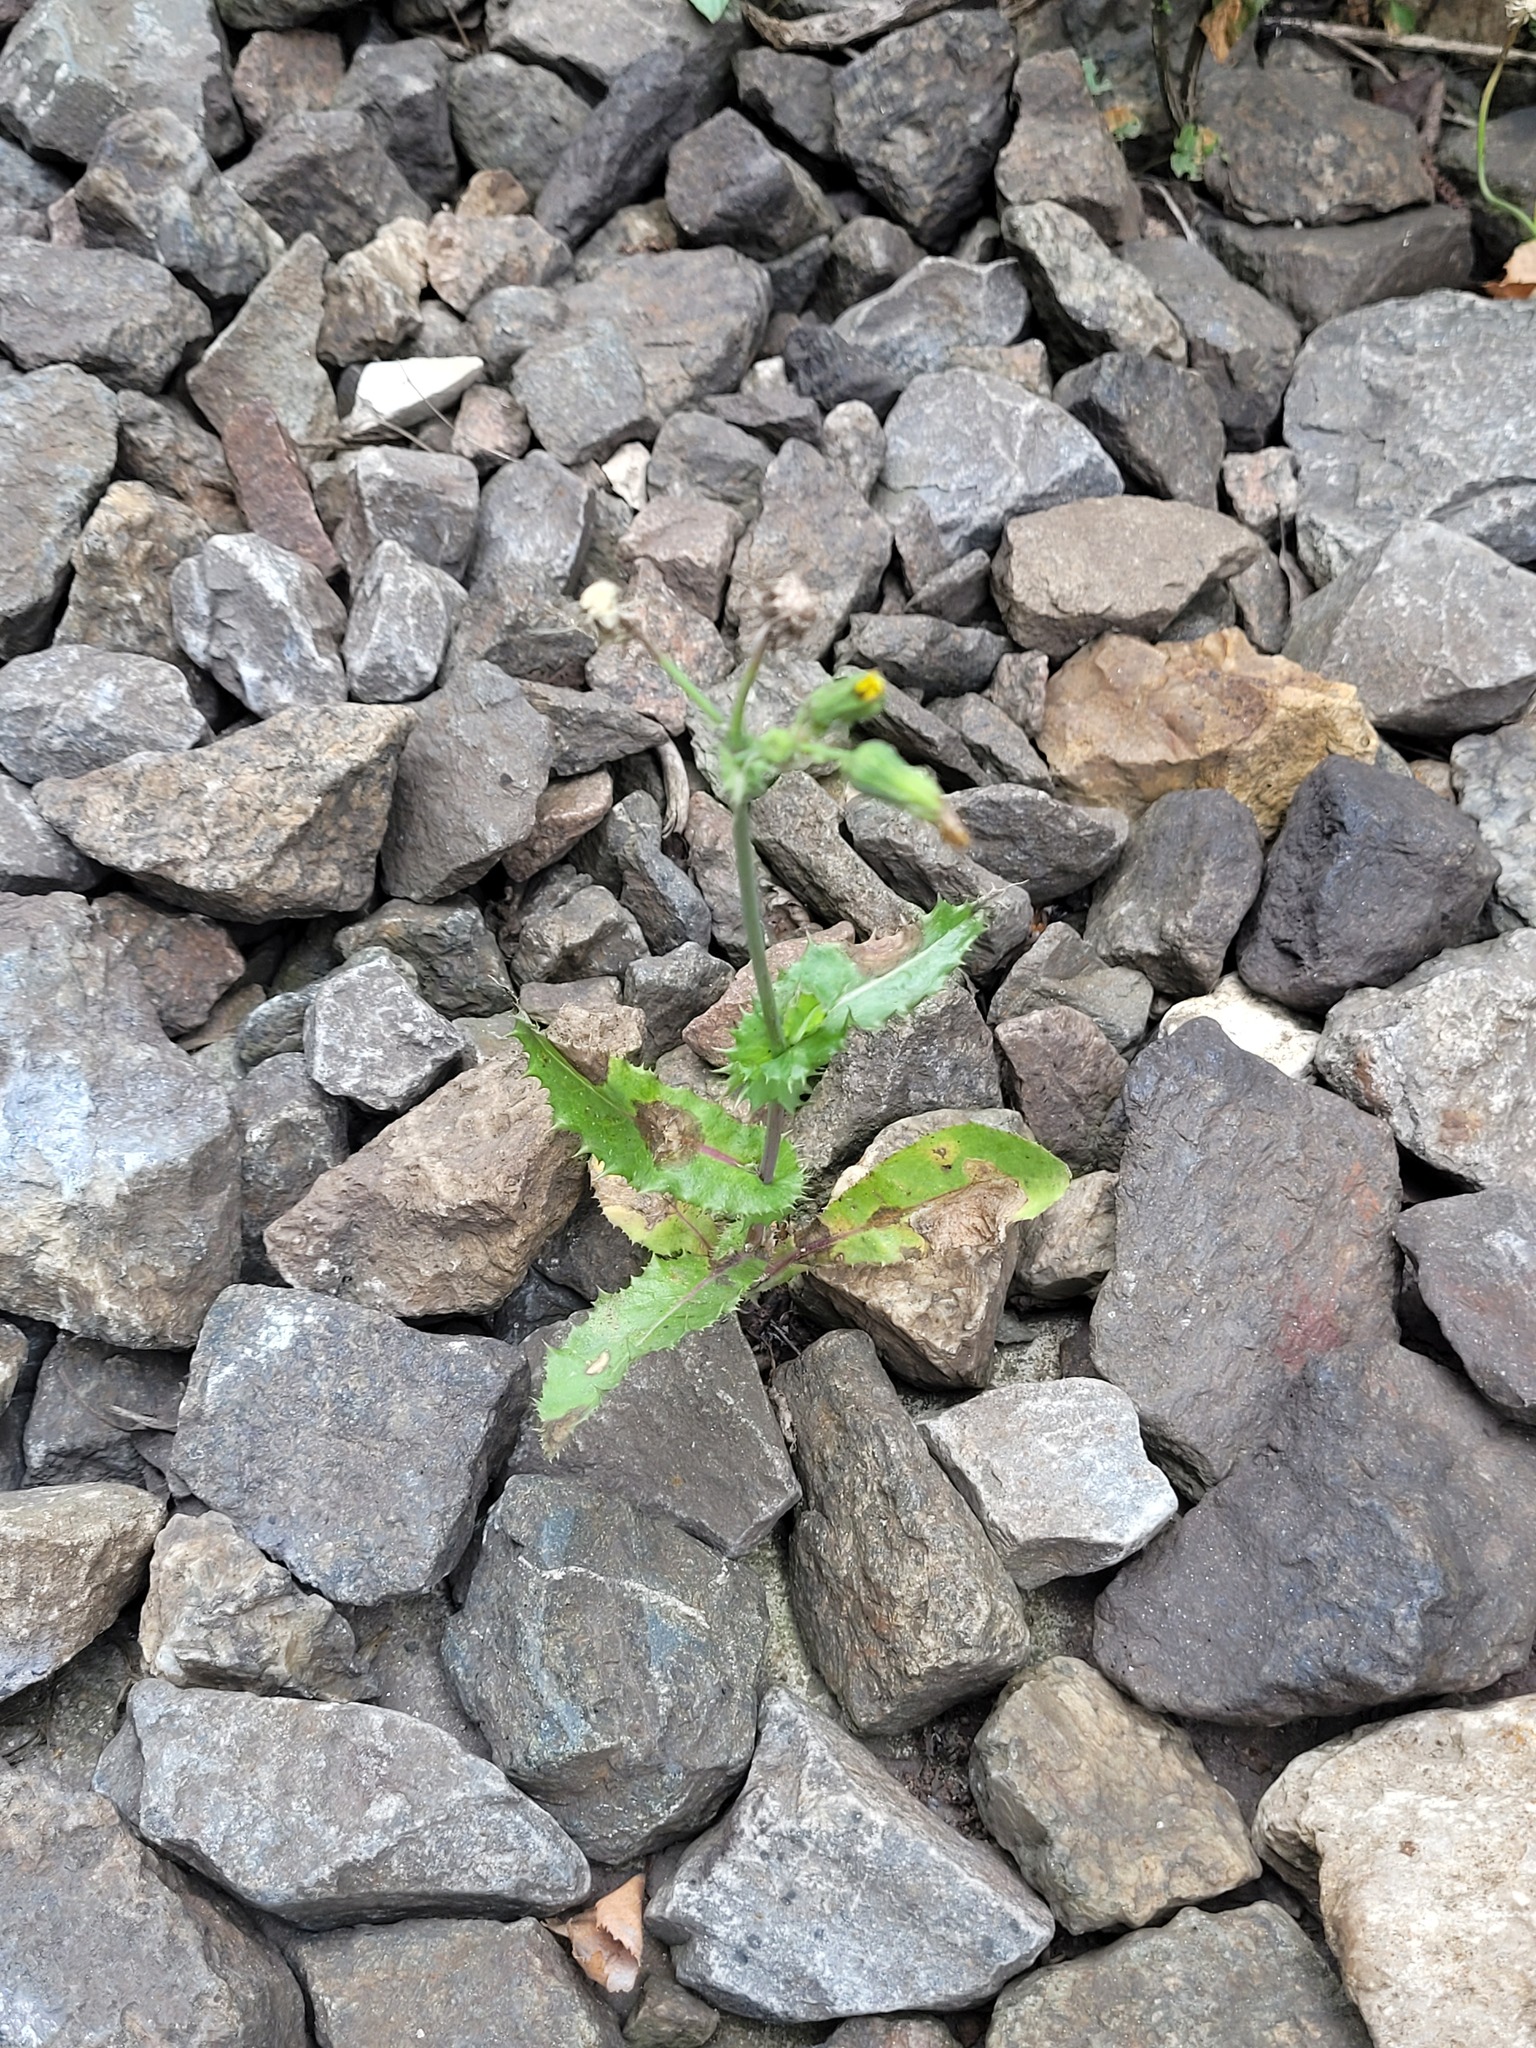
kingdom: Plantae
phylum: Tracheophyta
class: Magnoliopsida
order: Asterales
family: Asteraceae
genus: Sonchus
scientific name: Sonchus asper
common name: Prickly sow-thistle
